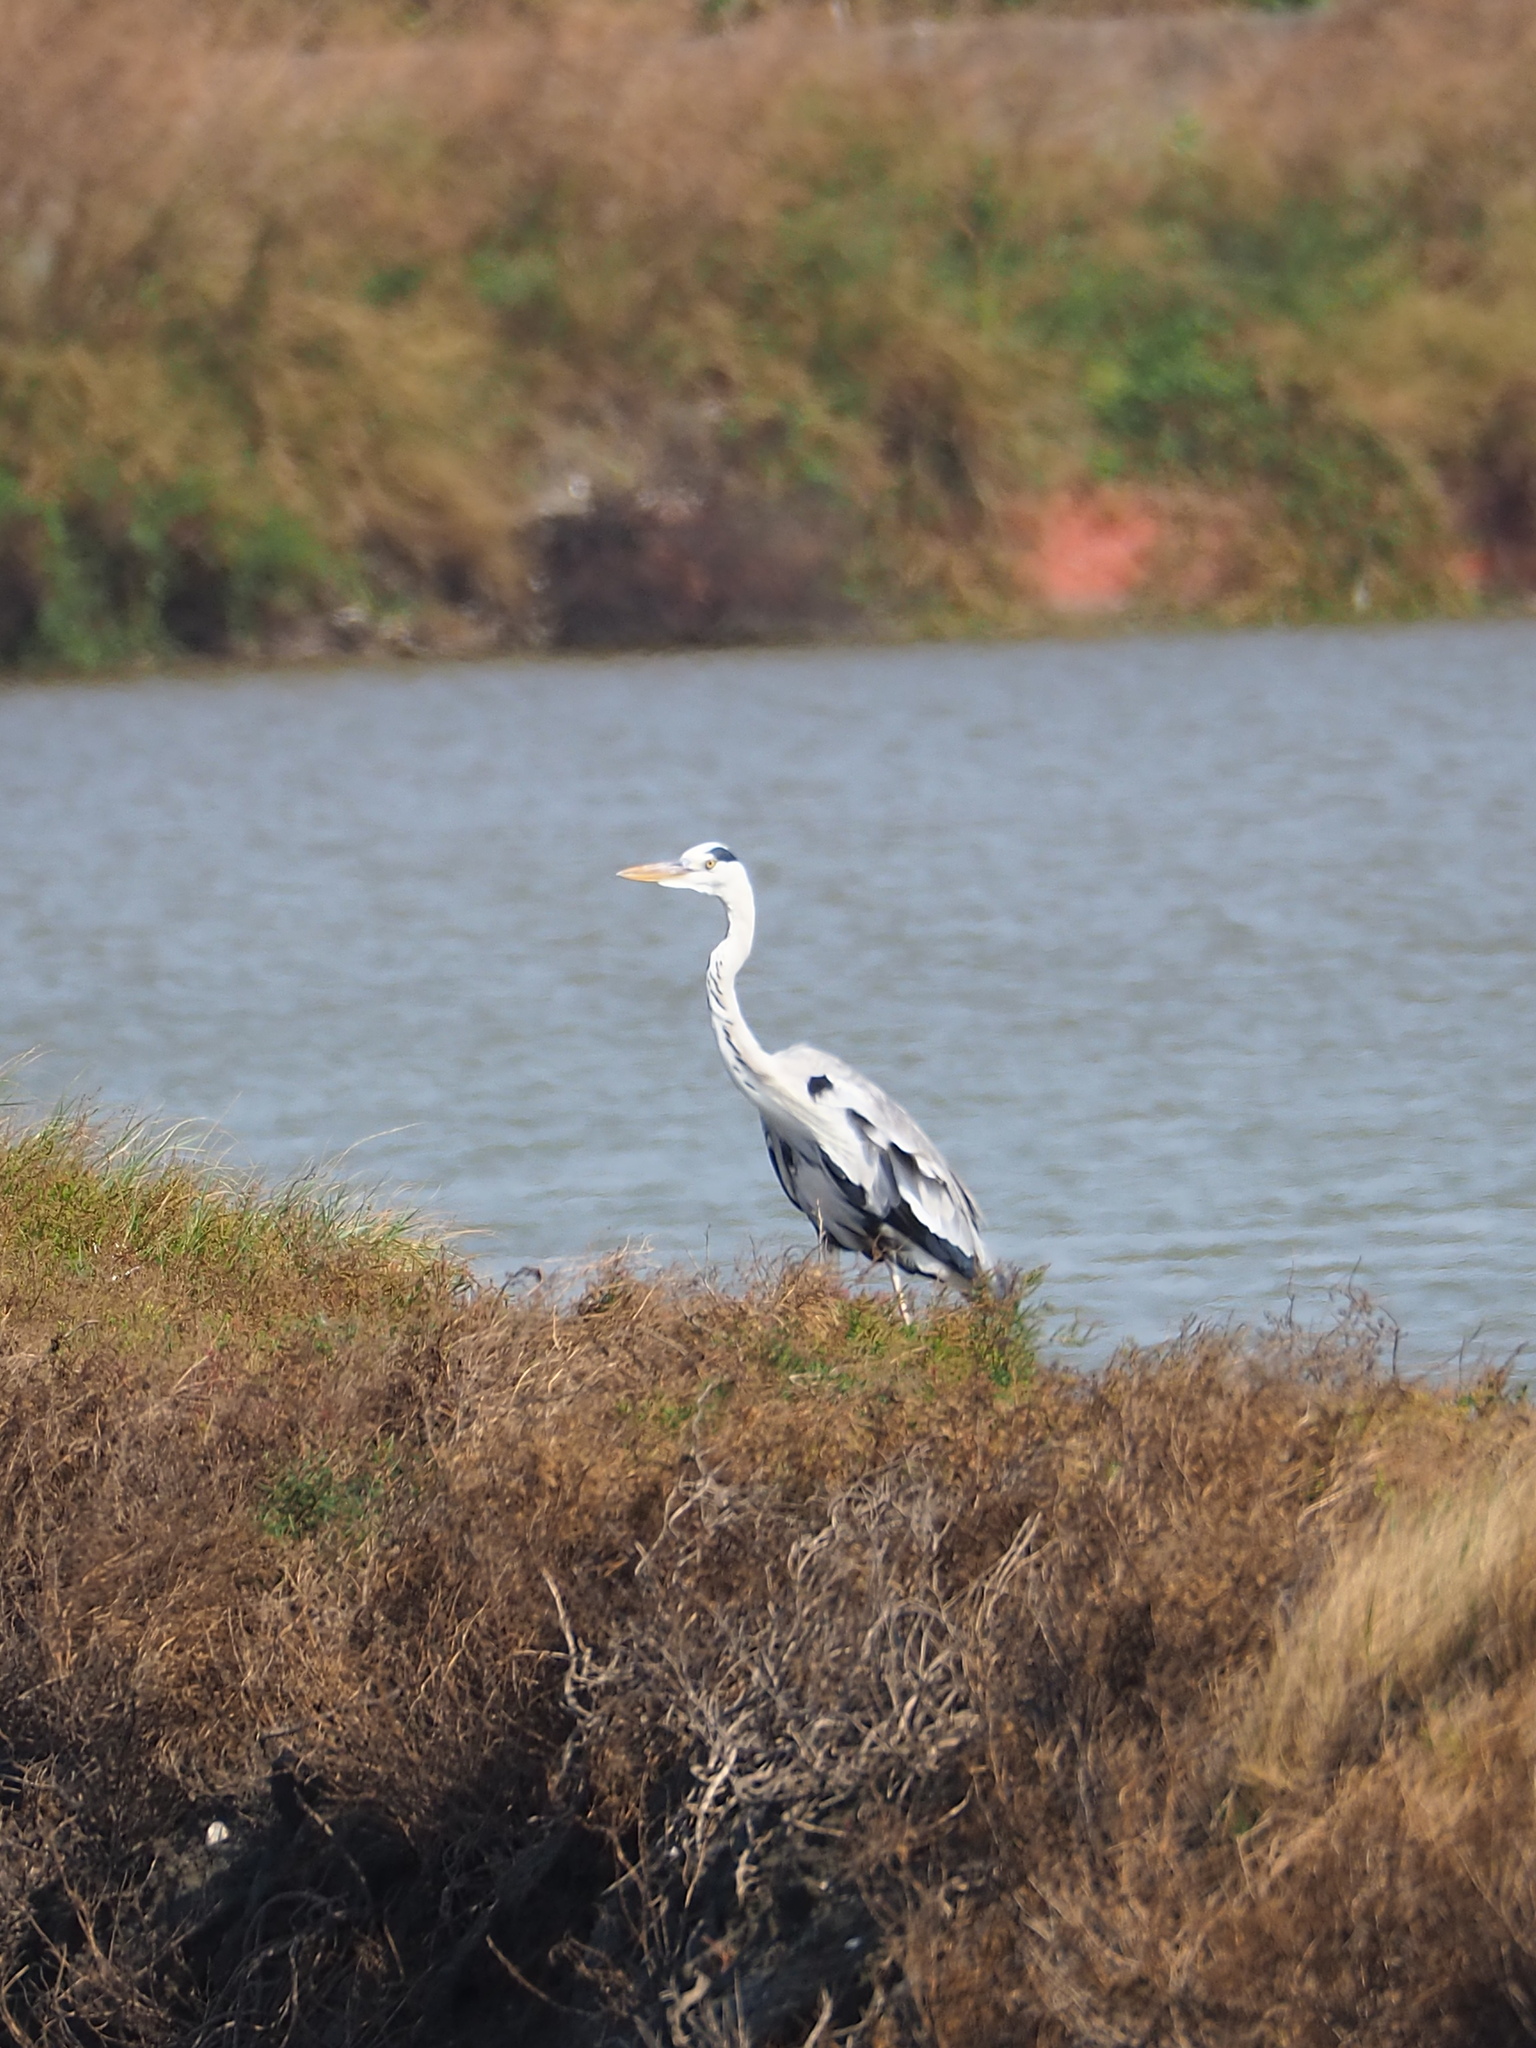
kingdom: Animalia
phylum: Chordata
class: Aves
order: Pelecaniformes
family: Ardeidae
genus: Ardea
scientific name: Ardea cinerea
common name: Grey heron
